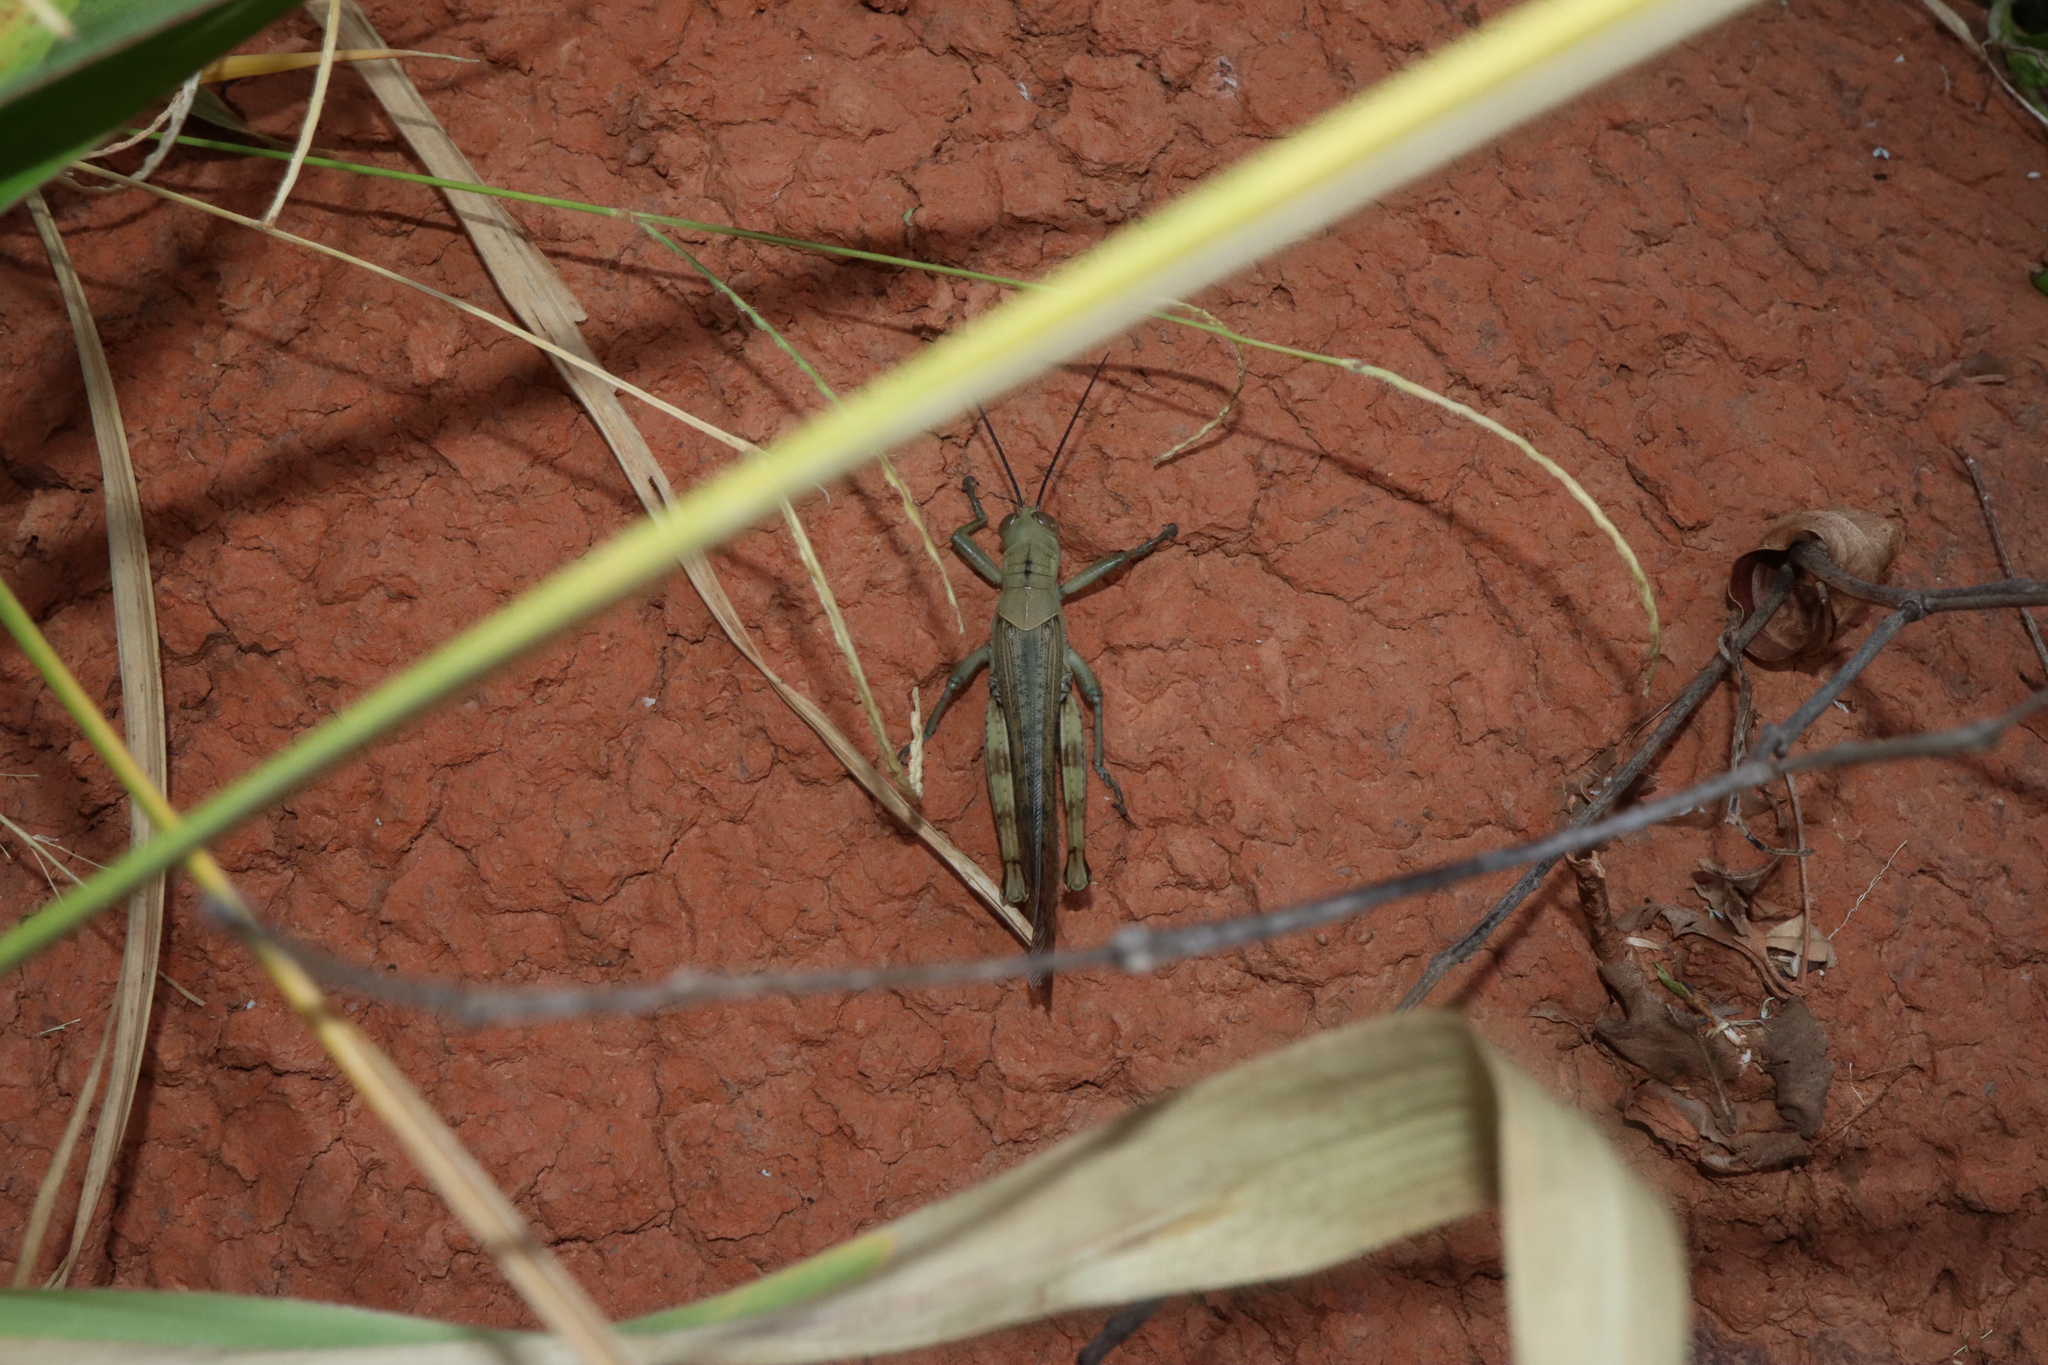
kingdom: Animalia
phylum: Arthropoda
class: Insecta
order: Orthoptera
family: Acrididae
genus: Valanga
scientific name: Valanga irregularis
